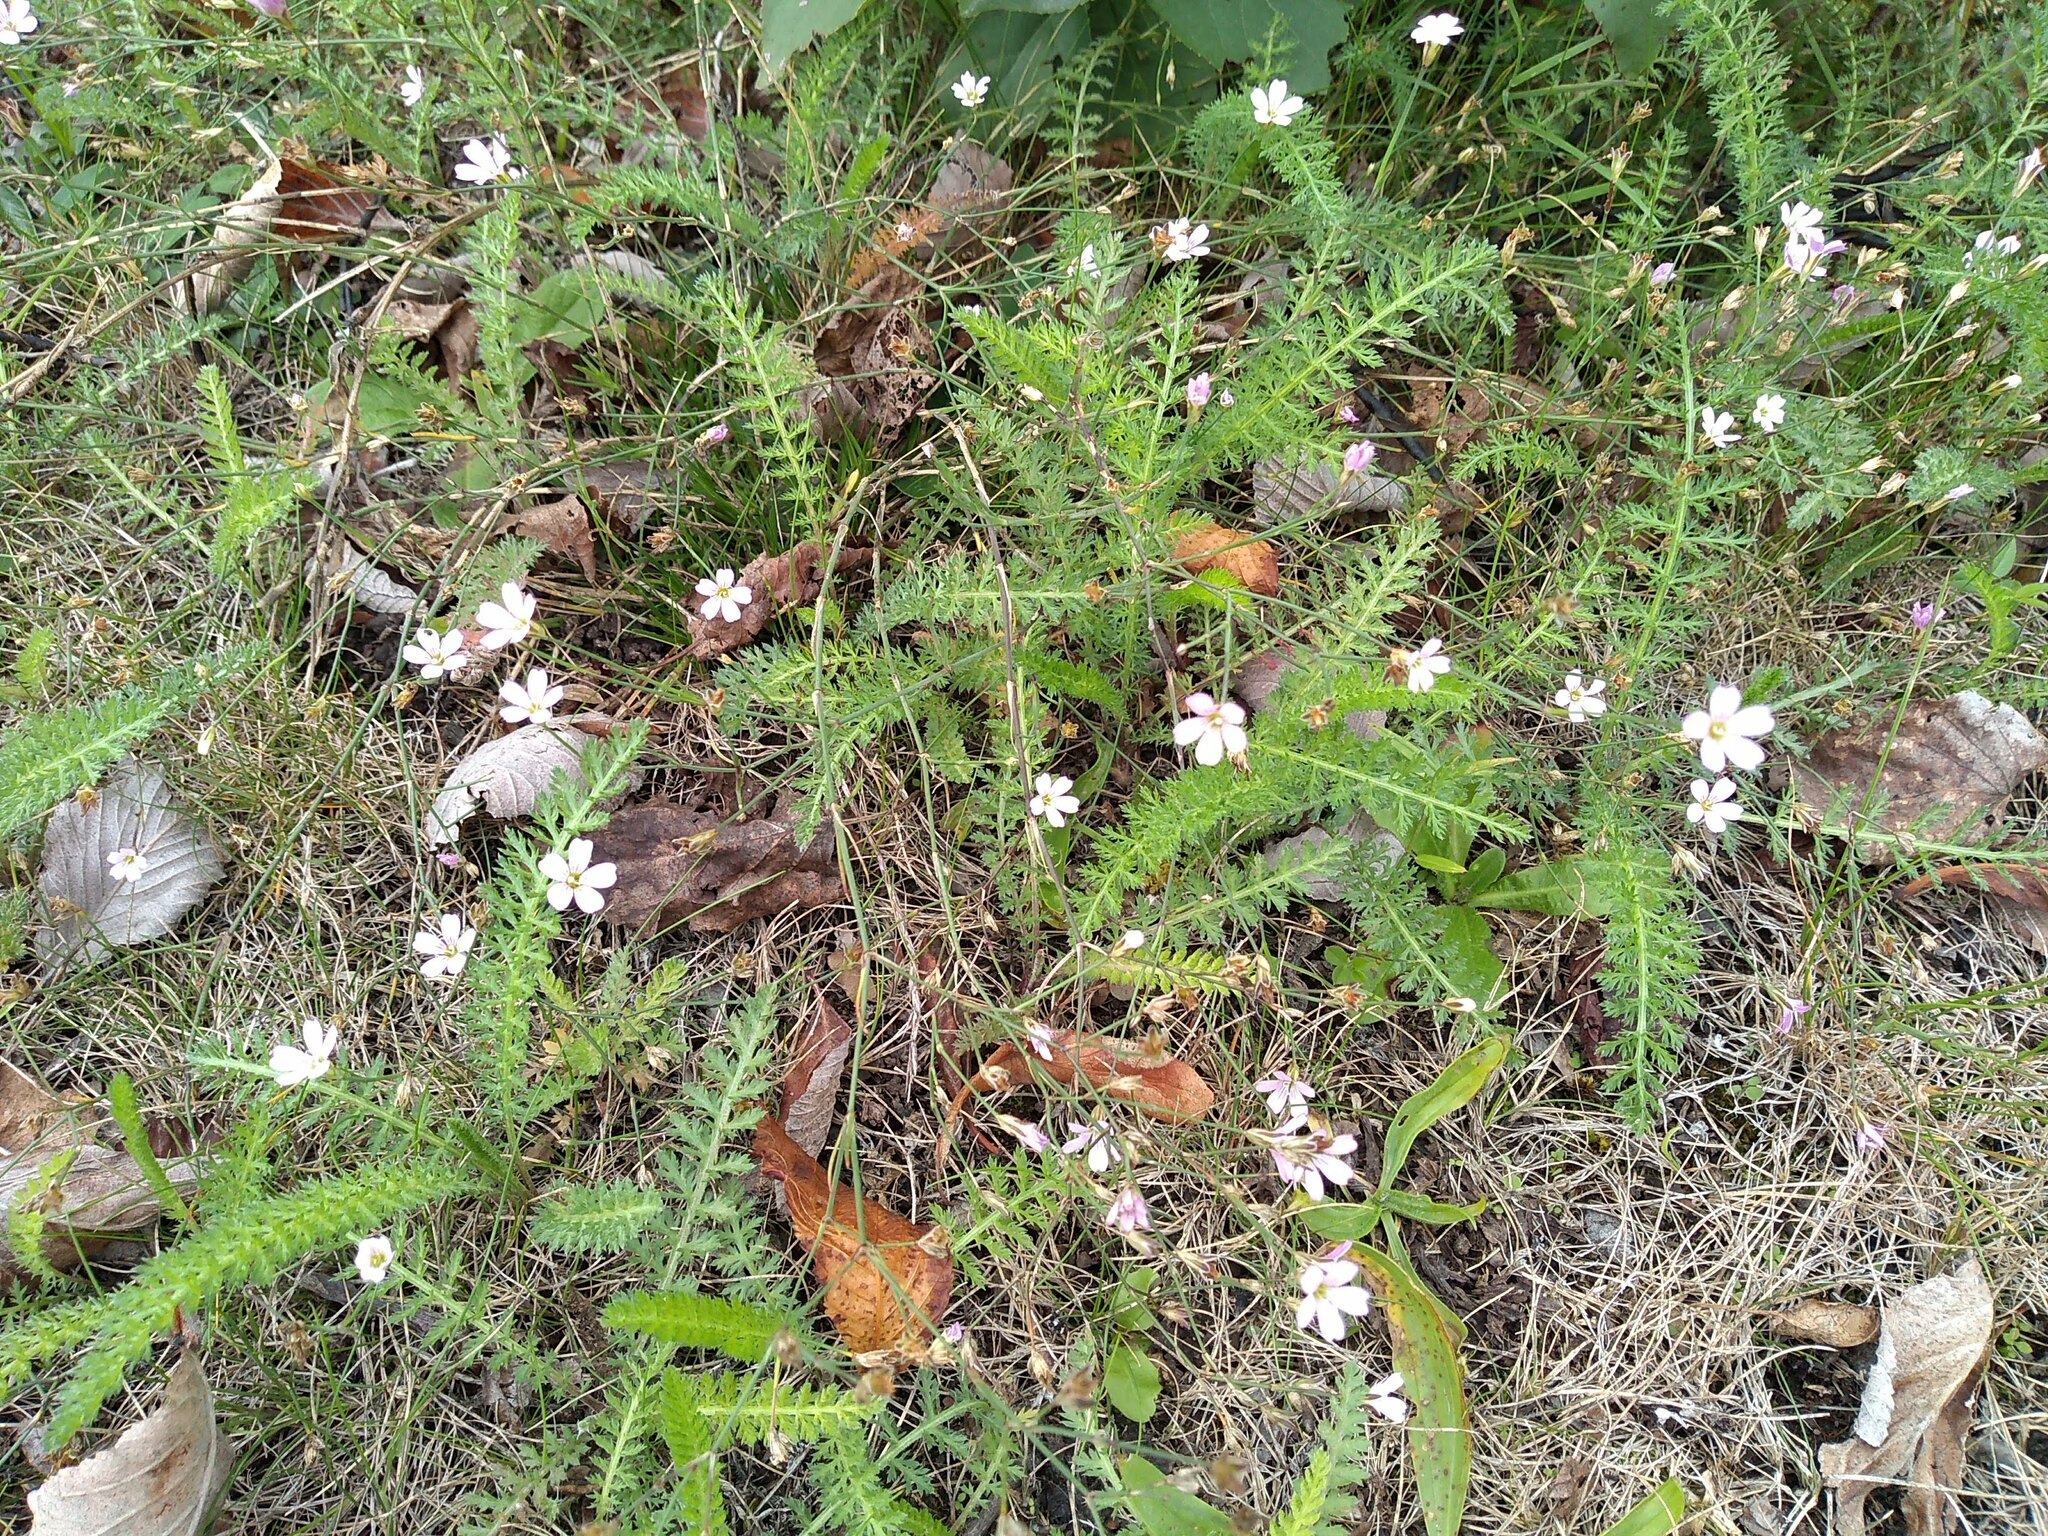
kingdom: Plantae
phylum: Tracheophyta
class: Magnoliopsida
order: Caryophyllales
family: Caryophyllaceae
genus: Petrorhagia
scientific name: Petrorhagia saxifraga
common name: Tunicflower
